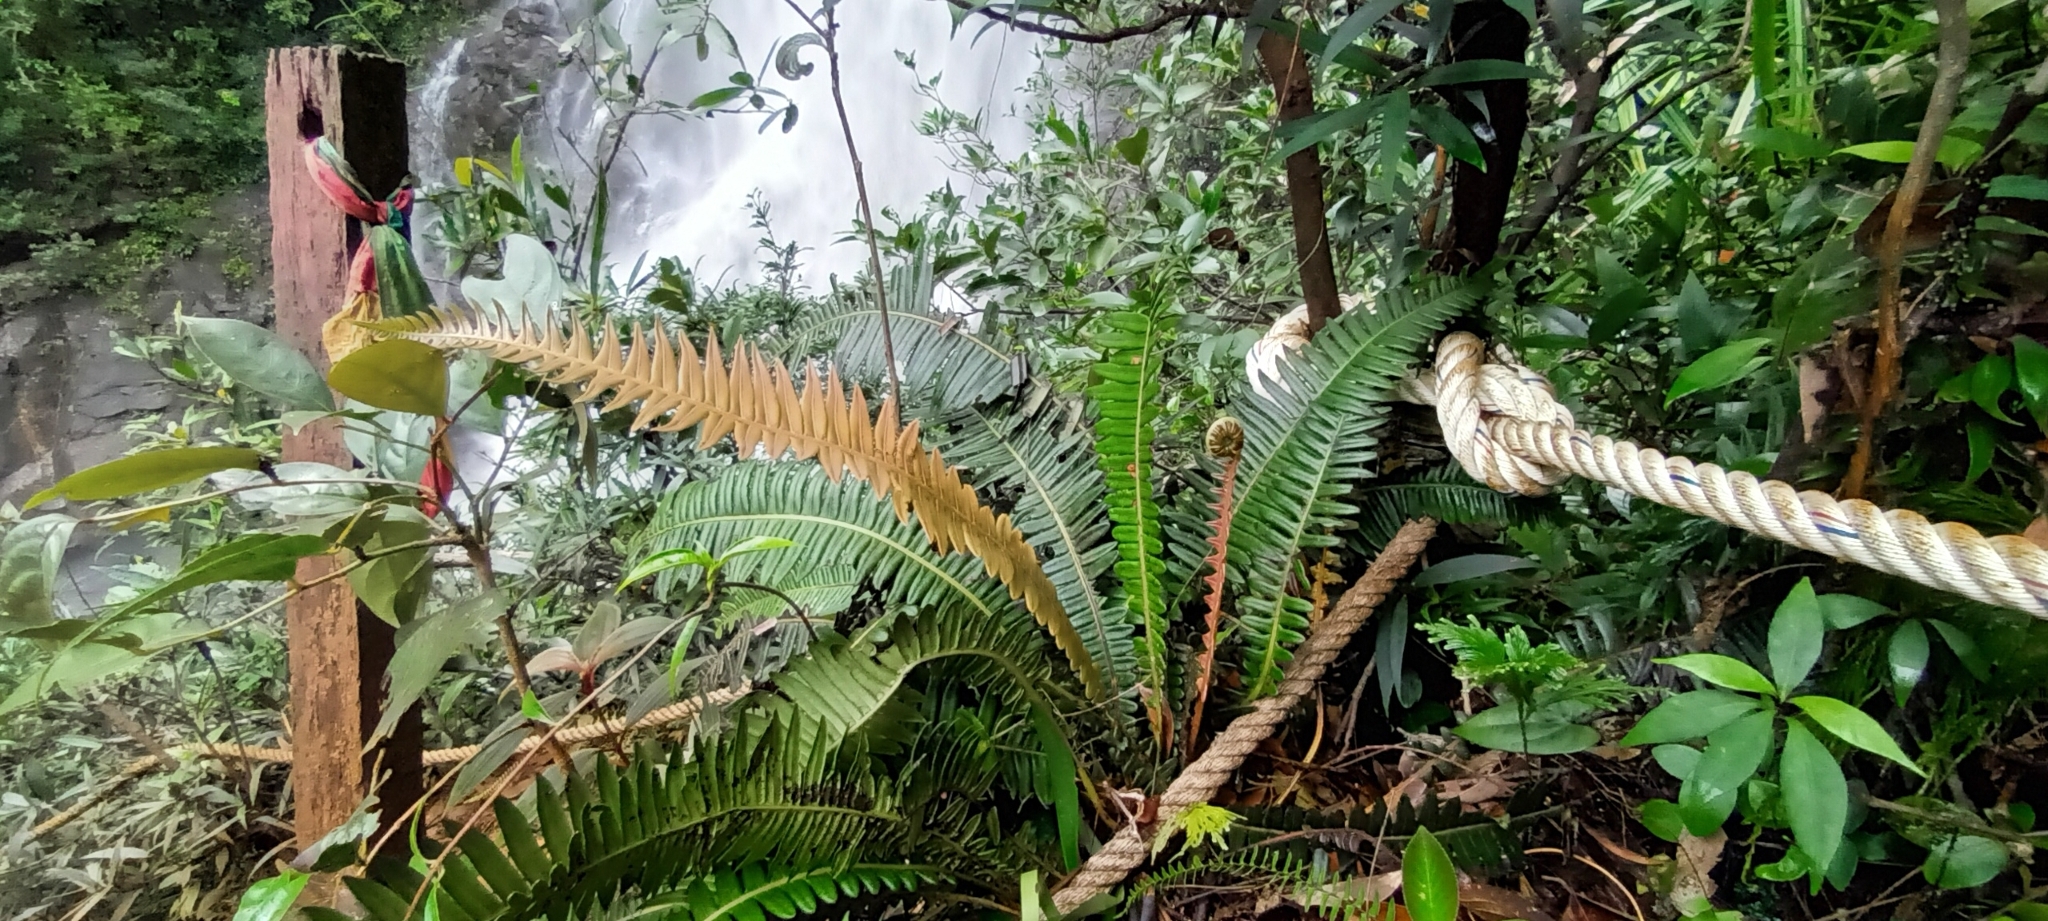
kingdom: Plantae
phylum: Tracheophyta
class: Polypodiopsida
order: Polypodiales
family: Blechnaceae
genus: Austroblechnum
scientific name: Austroblechnum keysseri
